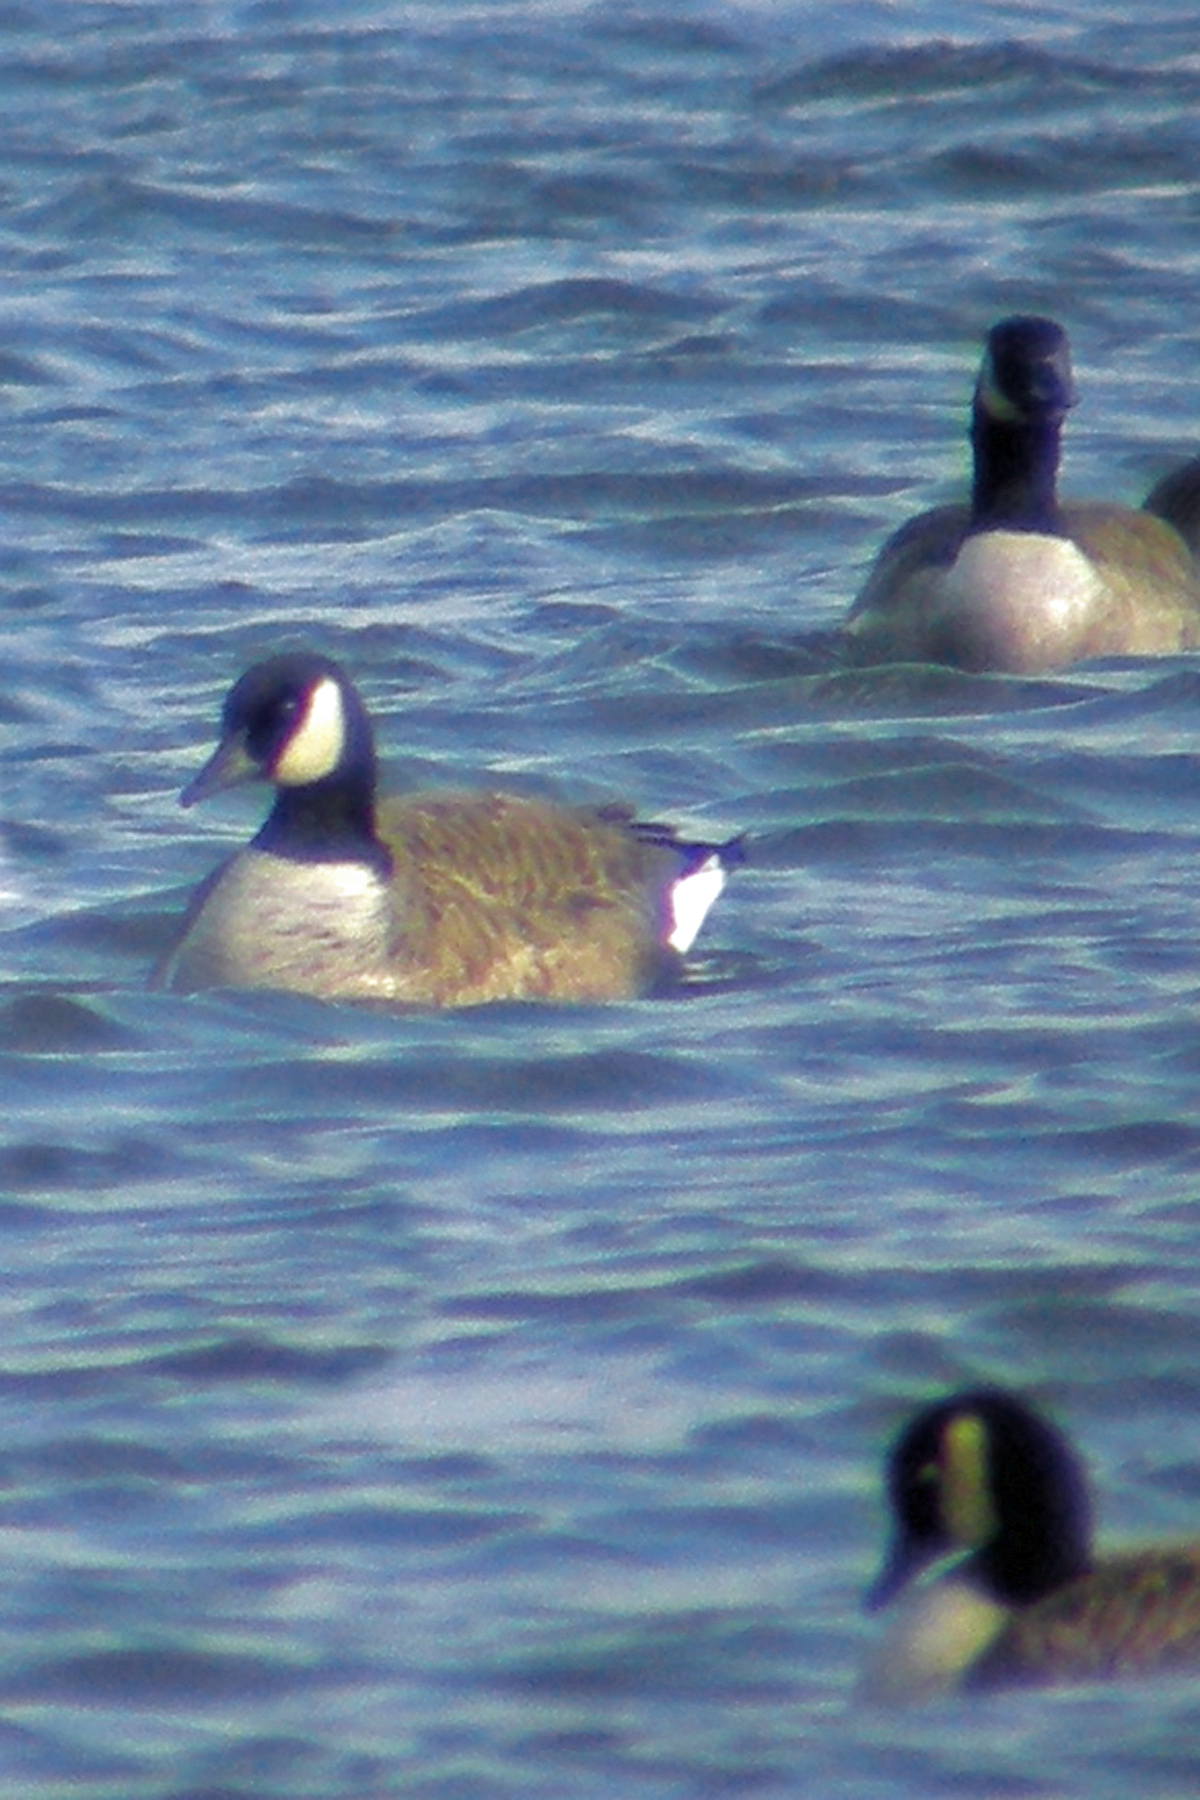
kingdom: Animalia
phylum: Chordata
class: Aves
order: Anseriformes
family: Anatidae
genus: Branta
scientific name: Branta canadensis
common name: Canada goose
